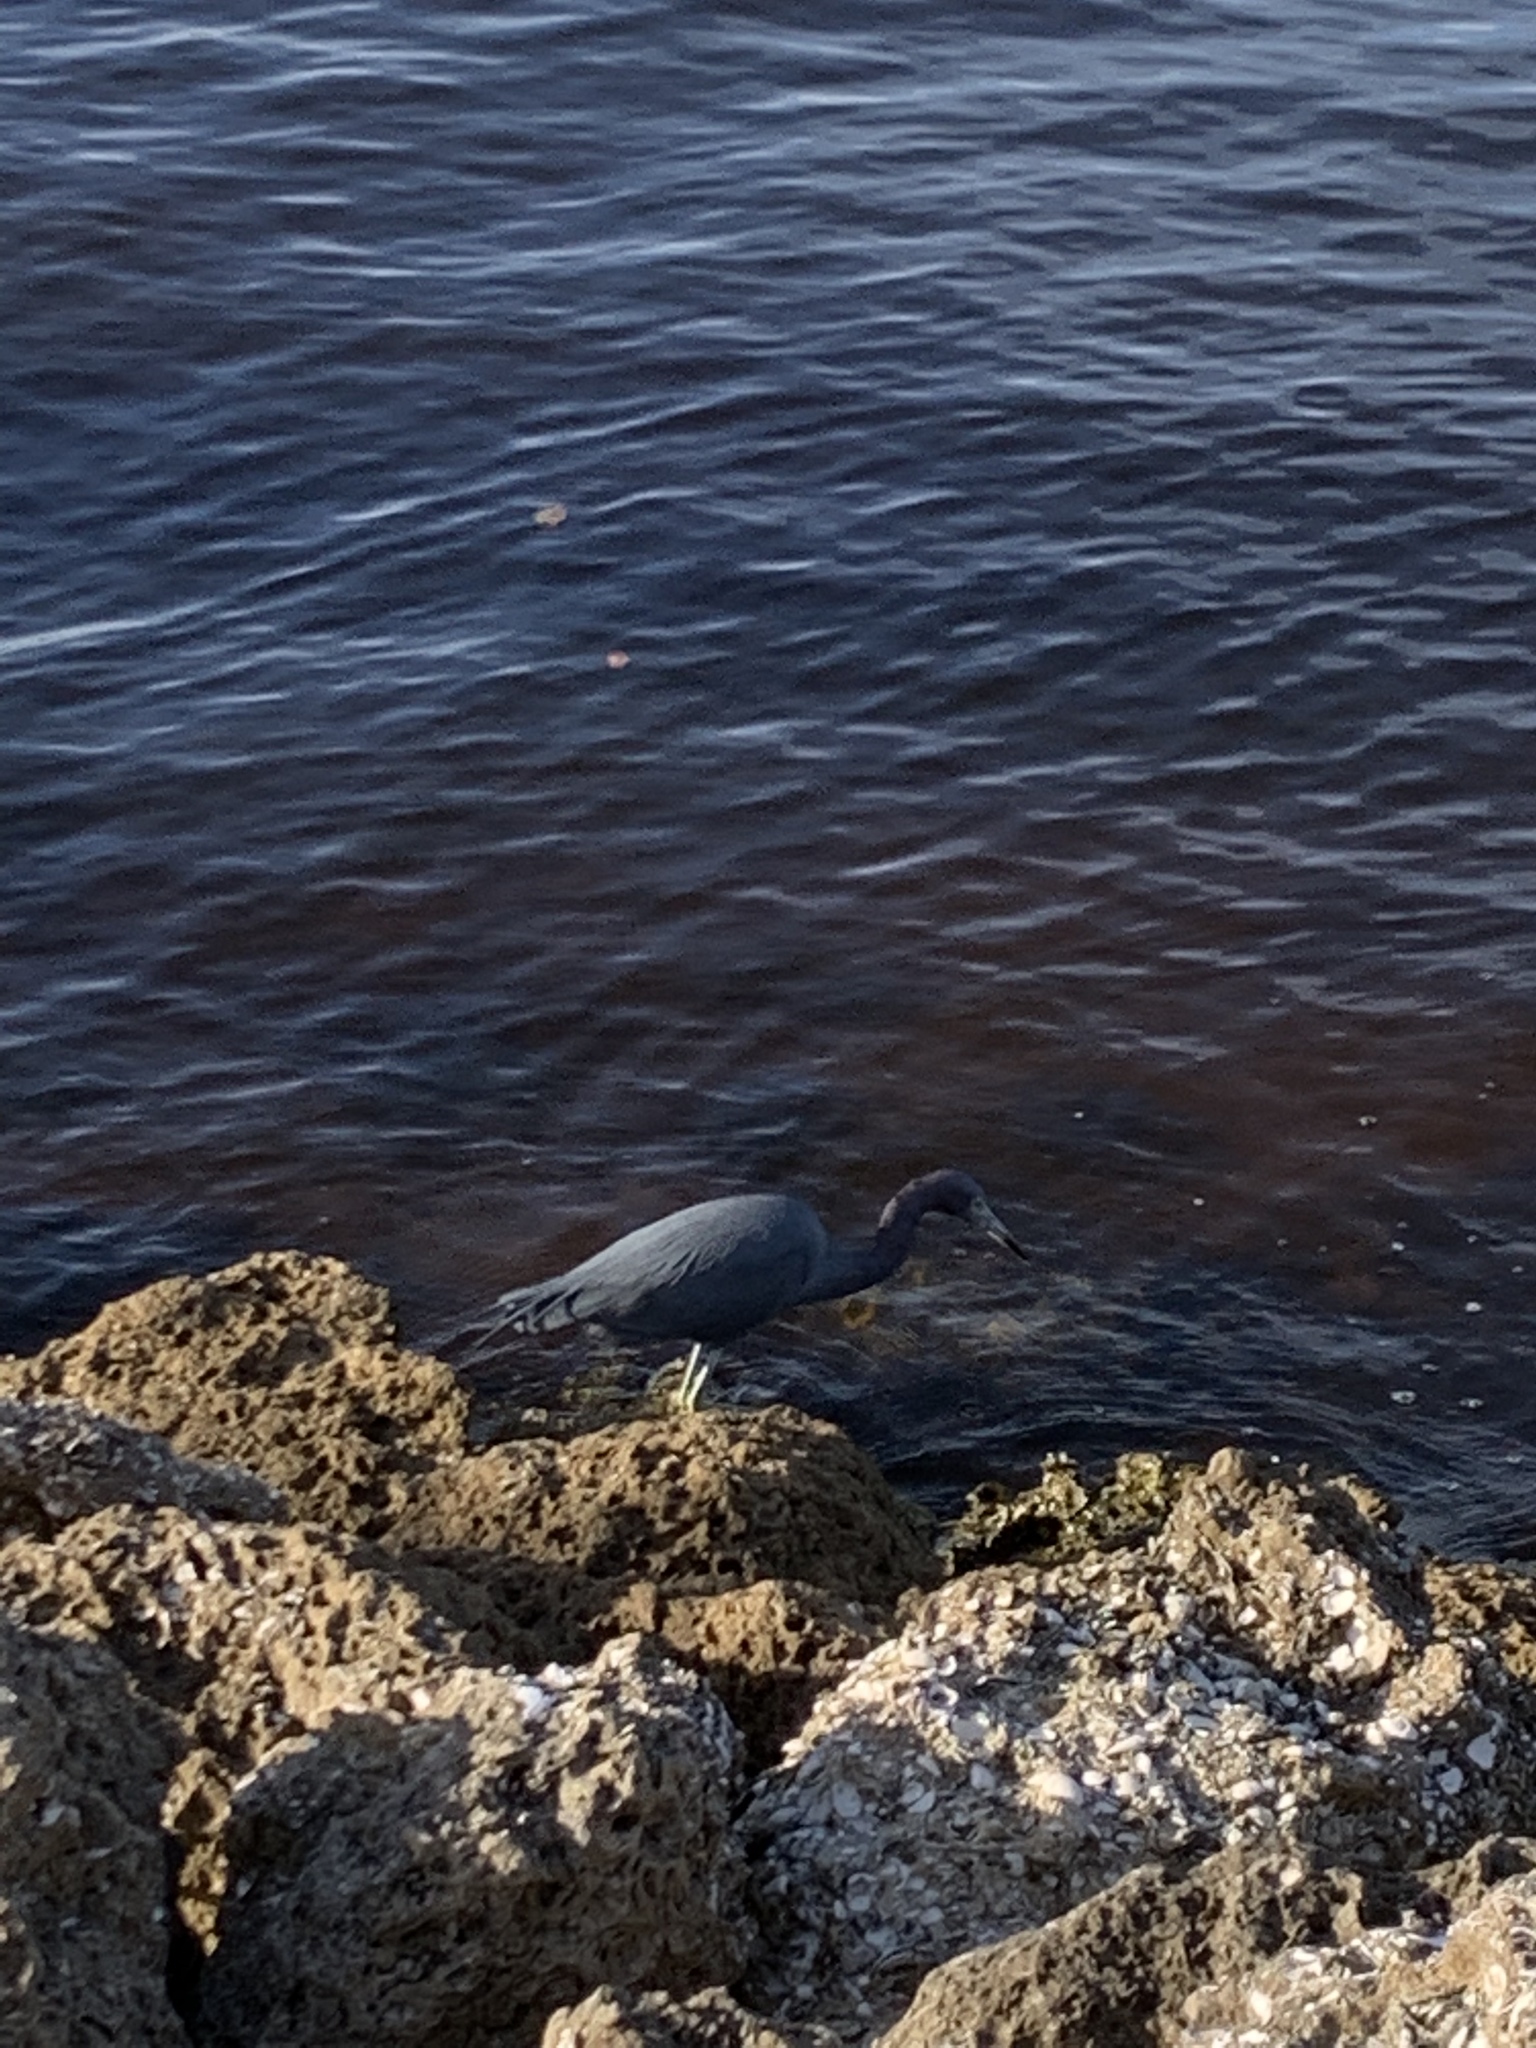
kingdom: Animalia
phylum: Chordata
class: Aves
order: Pelecaniformes
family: Ardeidae
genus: Egretta
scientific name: Egretta caerulea
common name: Little blue heron
